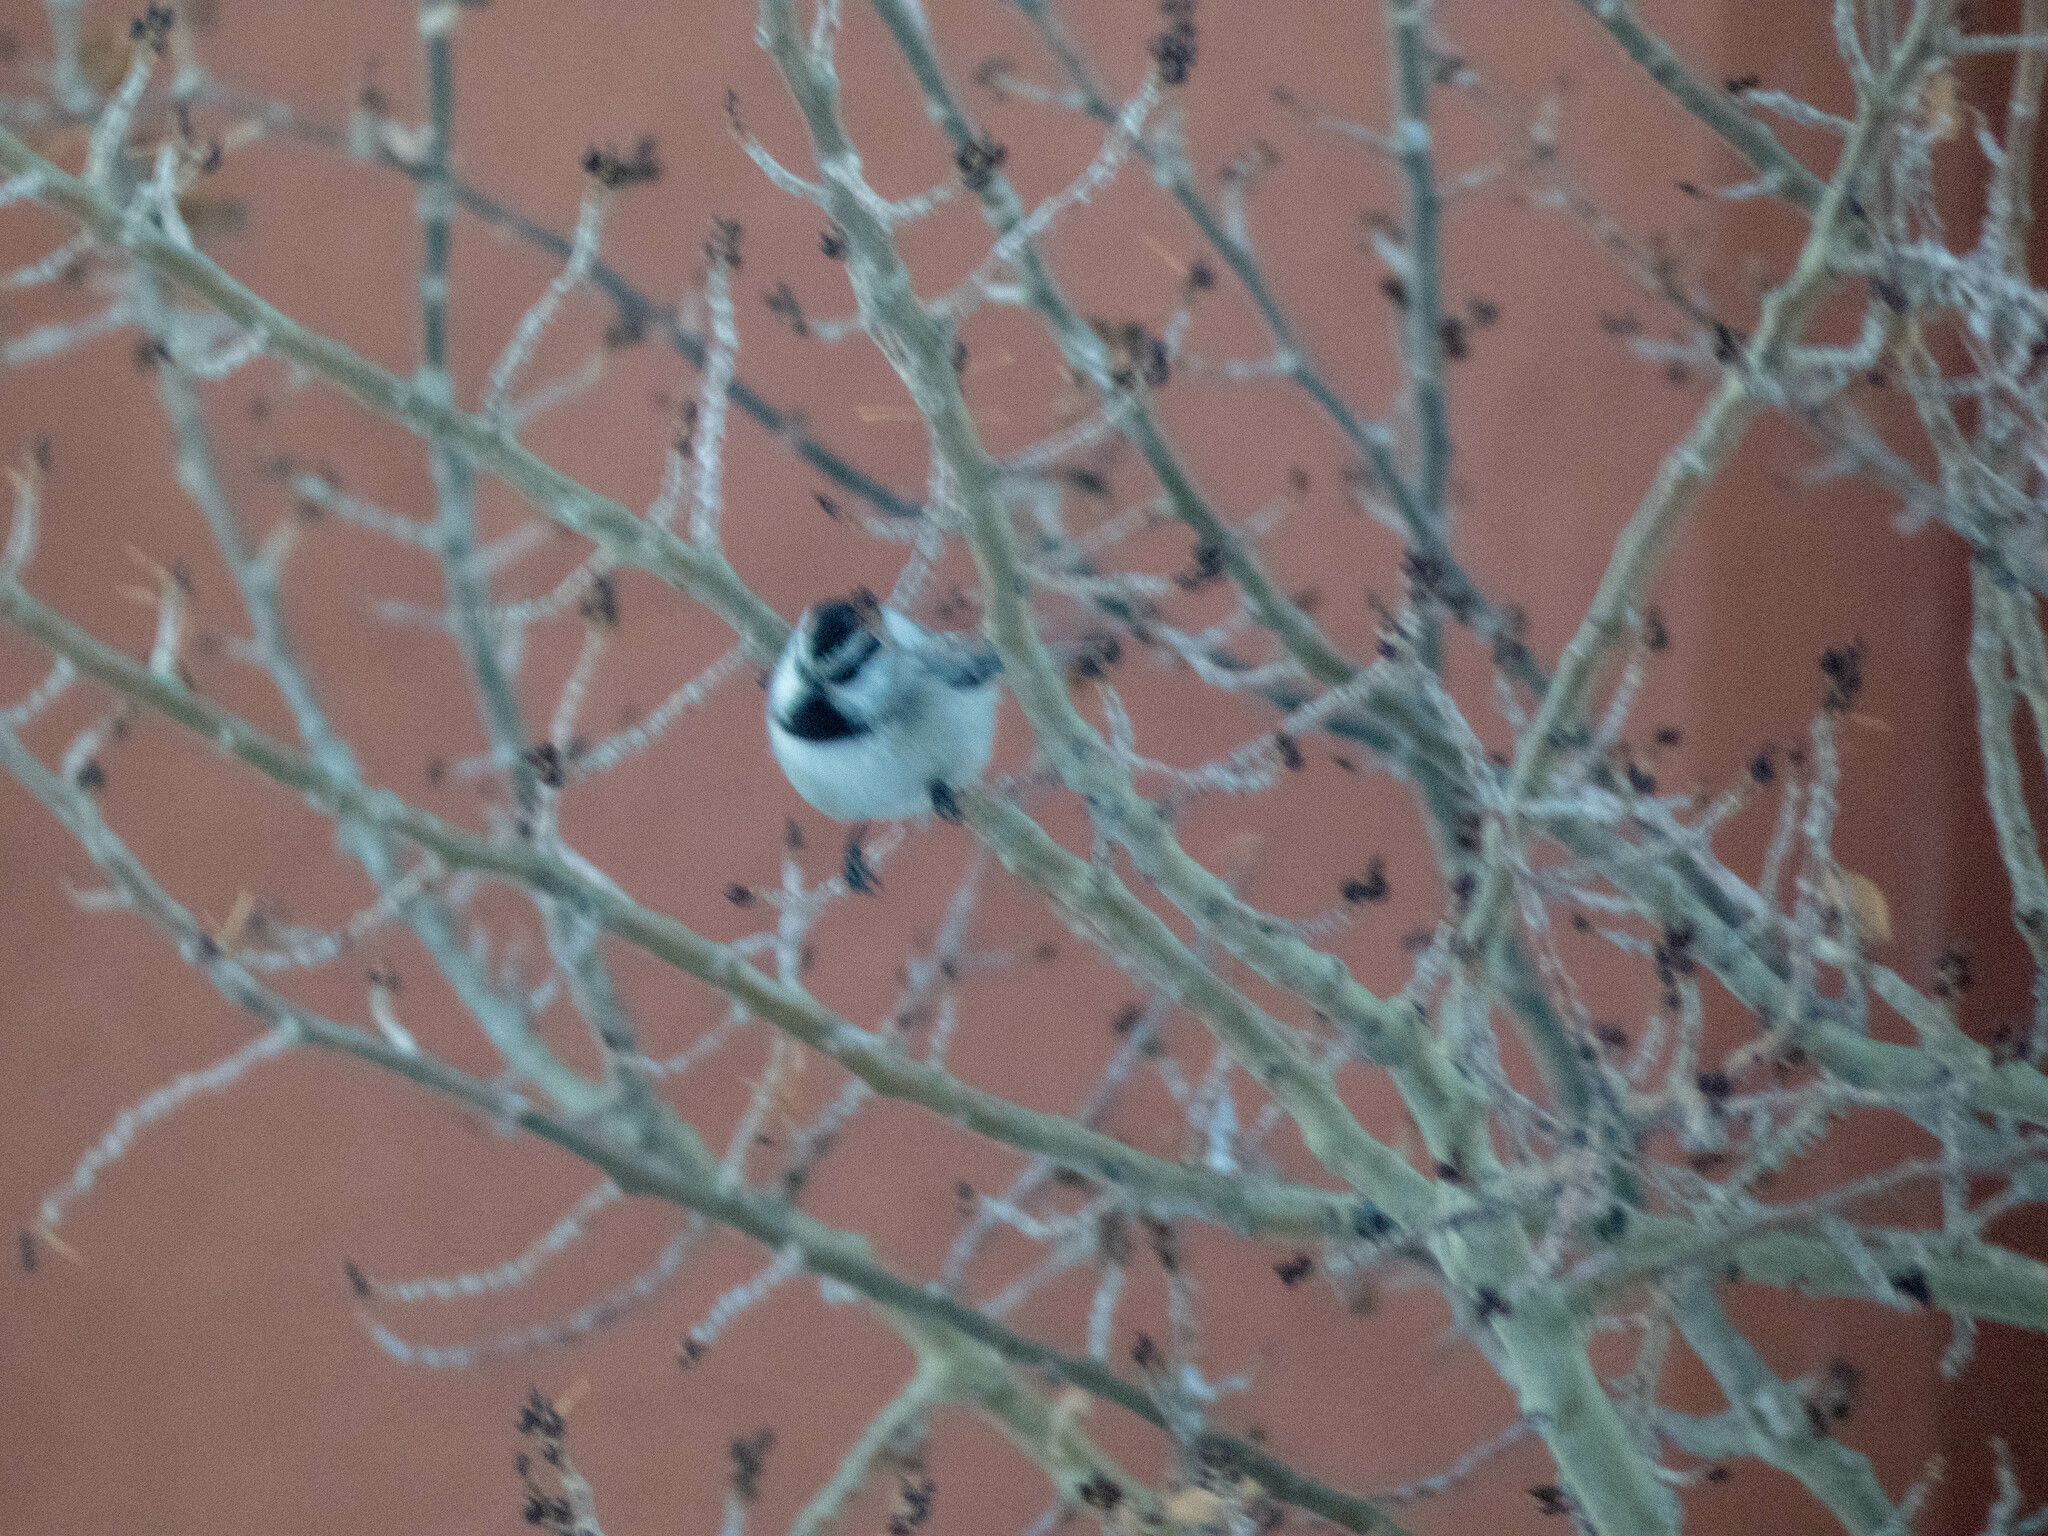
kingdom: Animalia
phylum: Chordata
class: Aves
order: Passeriformes
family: Paridae
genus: Poecile
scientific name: Poecile gambeli
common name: Mountain chickadee
